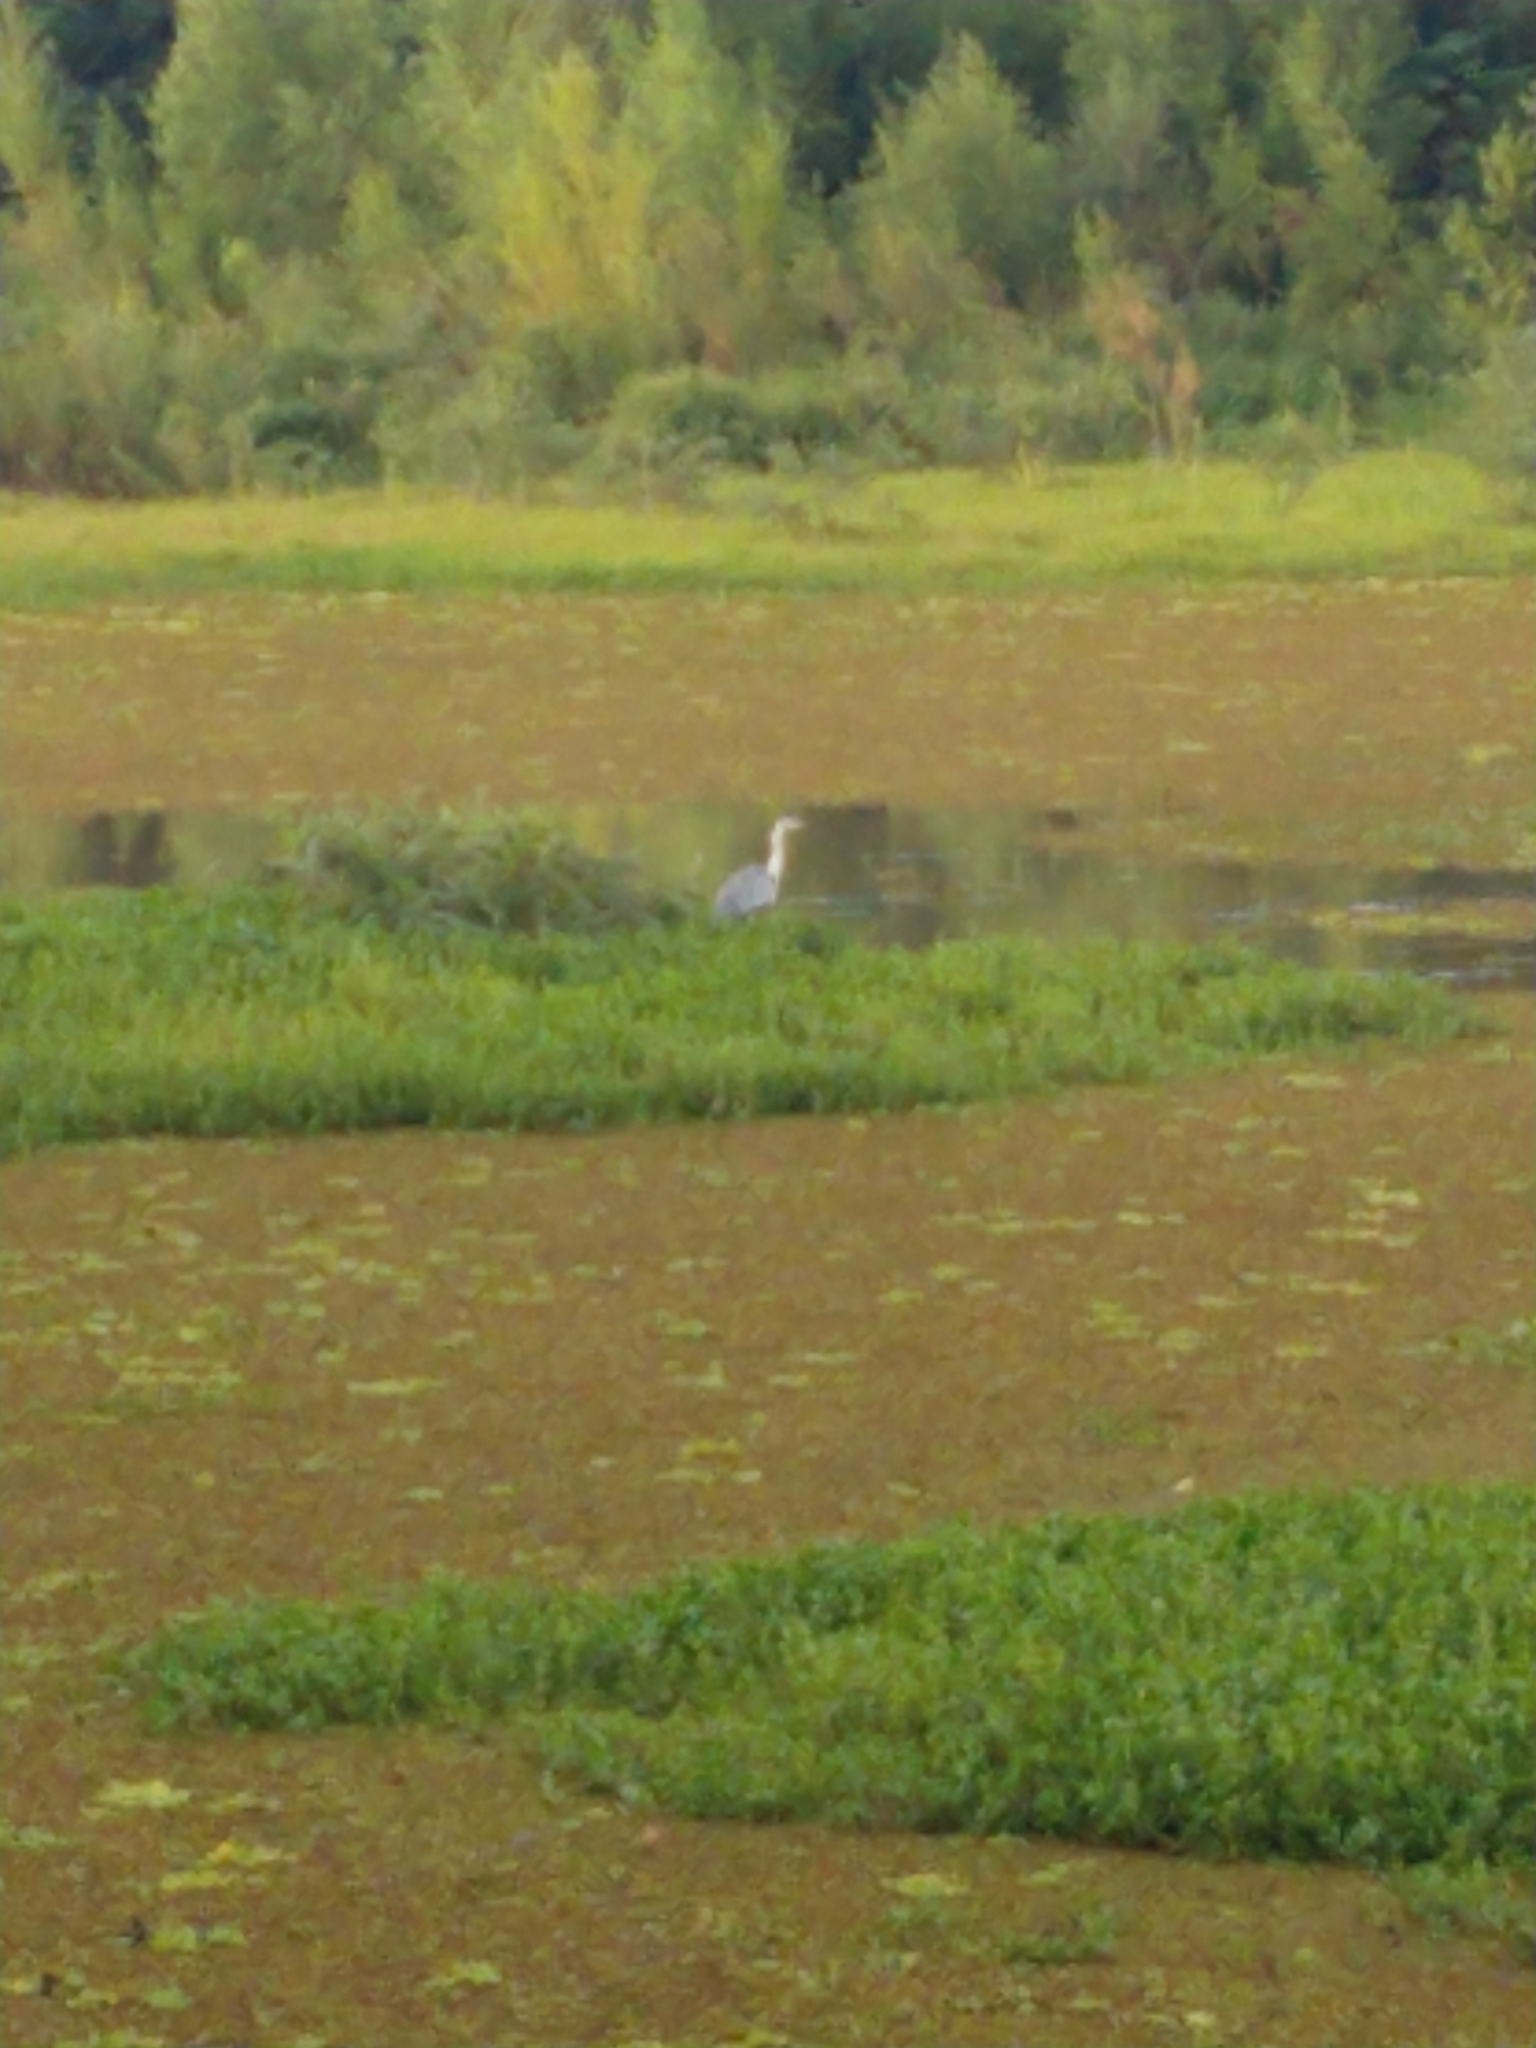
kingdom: Animalia
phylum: Chordata
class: Aves
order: Pelecaniformes
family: Ardeidae
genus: Ardea
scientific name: Ardea cocoi
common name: Cocoi heron
